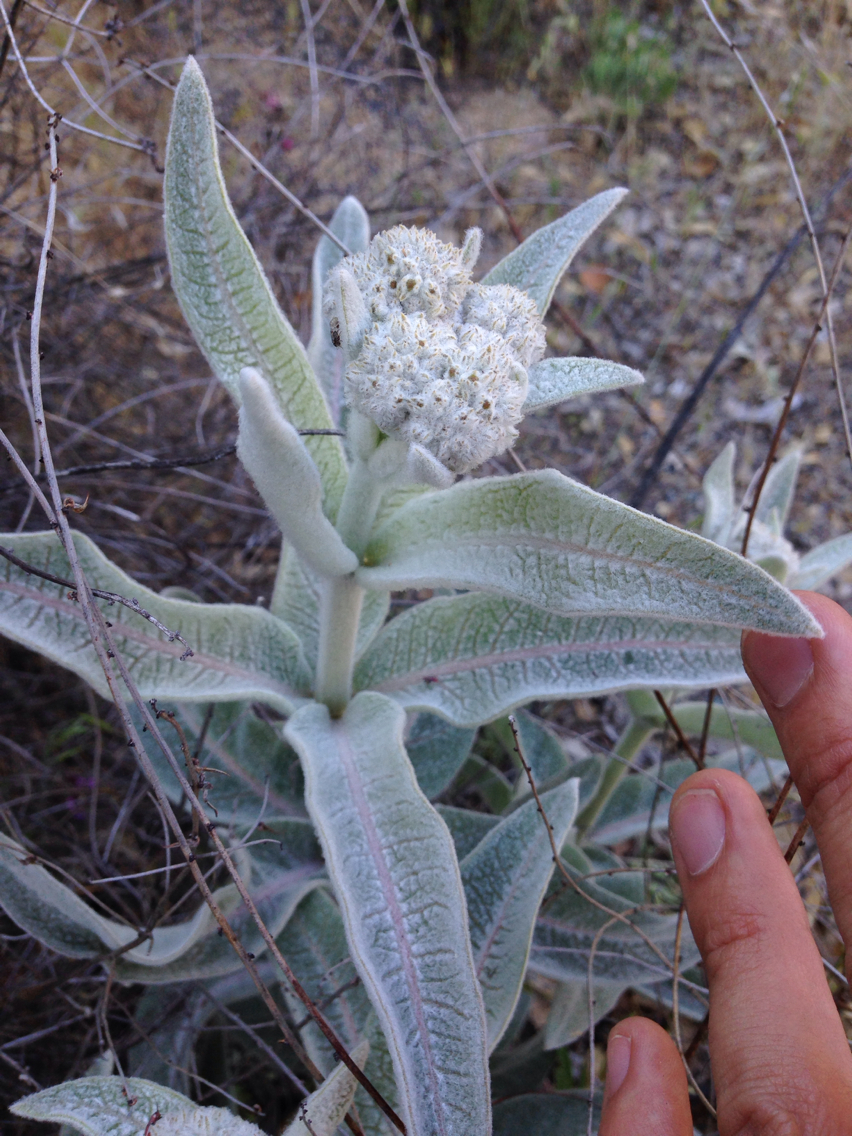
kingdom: Plantae
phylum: Tracheophyta
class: Magnoliopsida
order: Gentianales
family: Apocynaceae
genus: Asclepias
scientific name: Asclepias eriocarpa
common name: Indian milkweed
